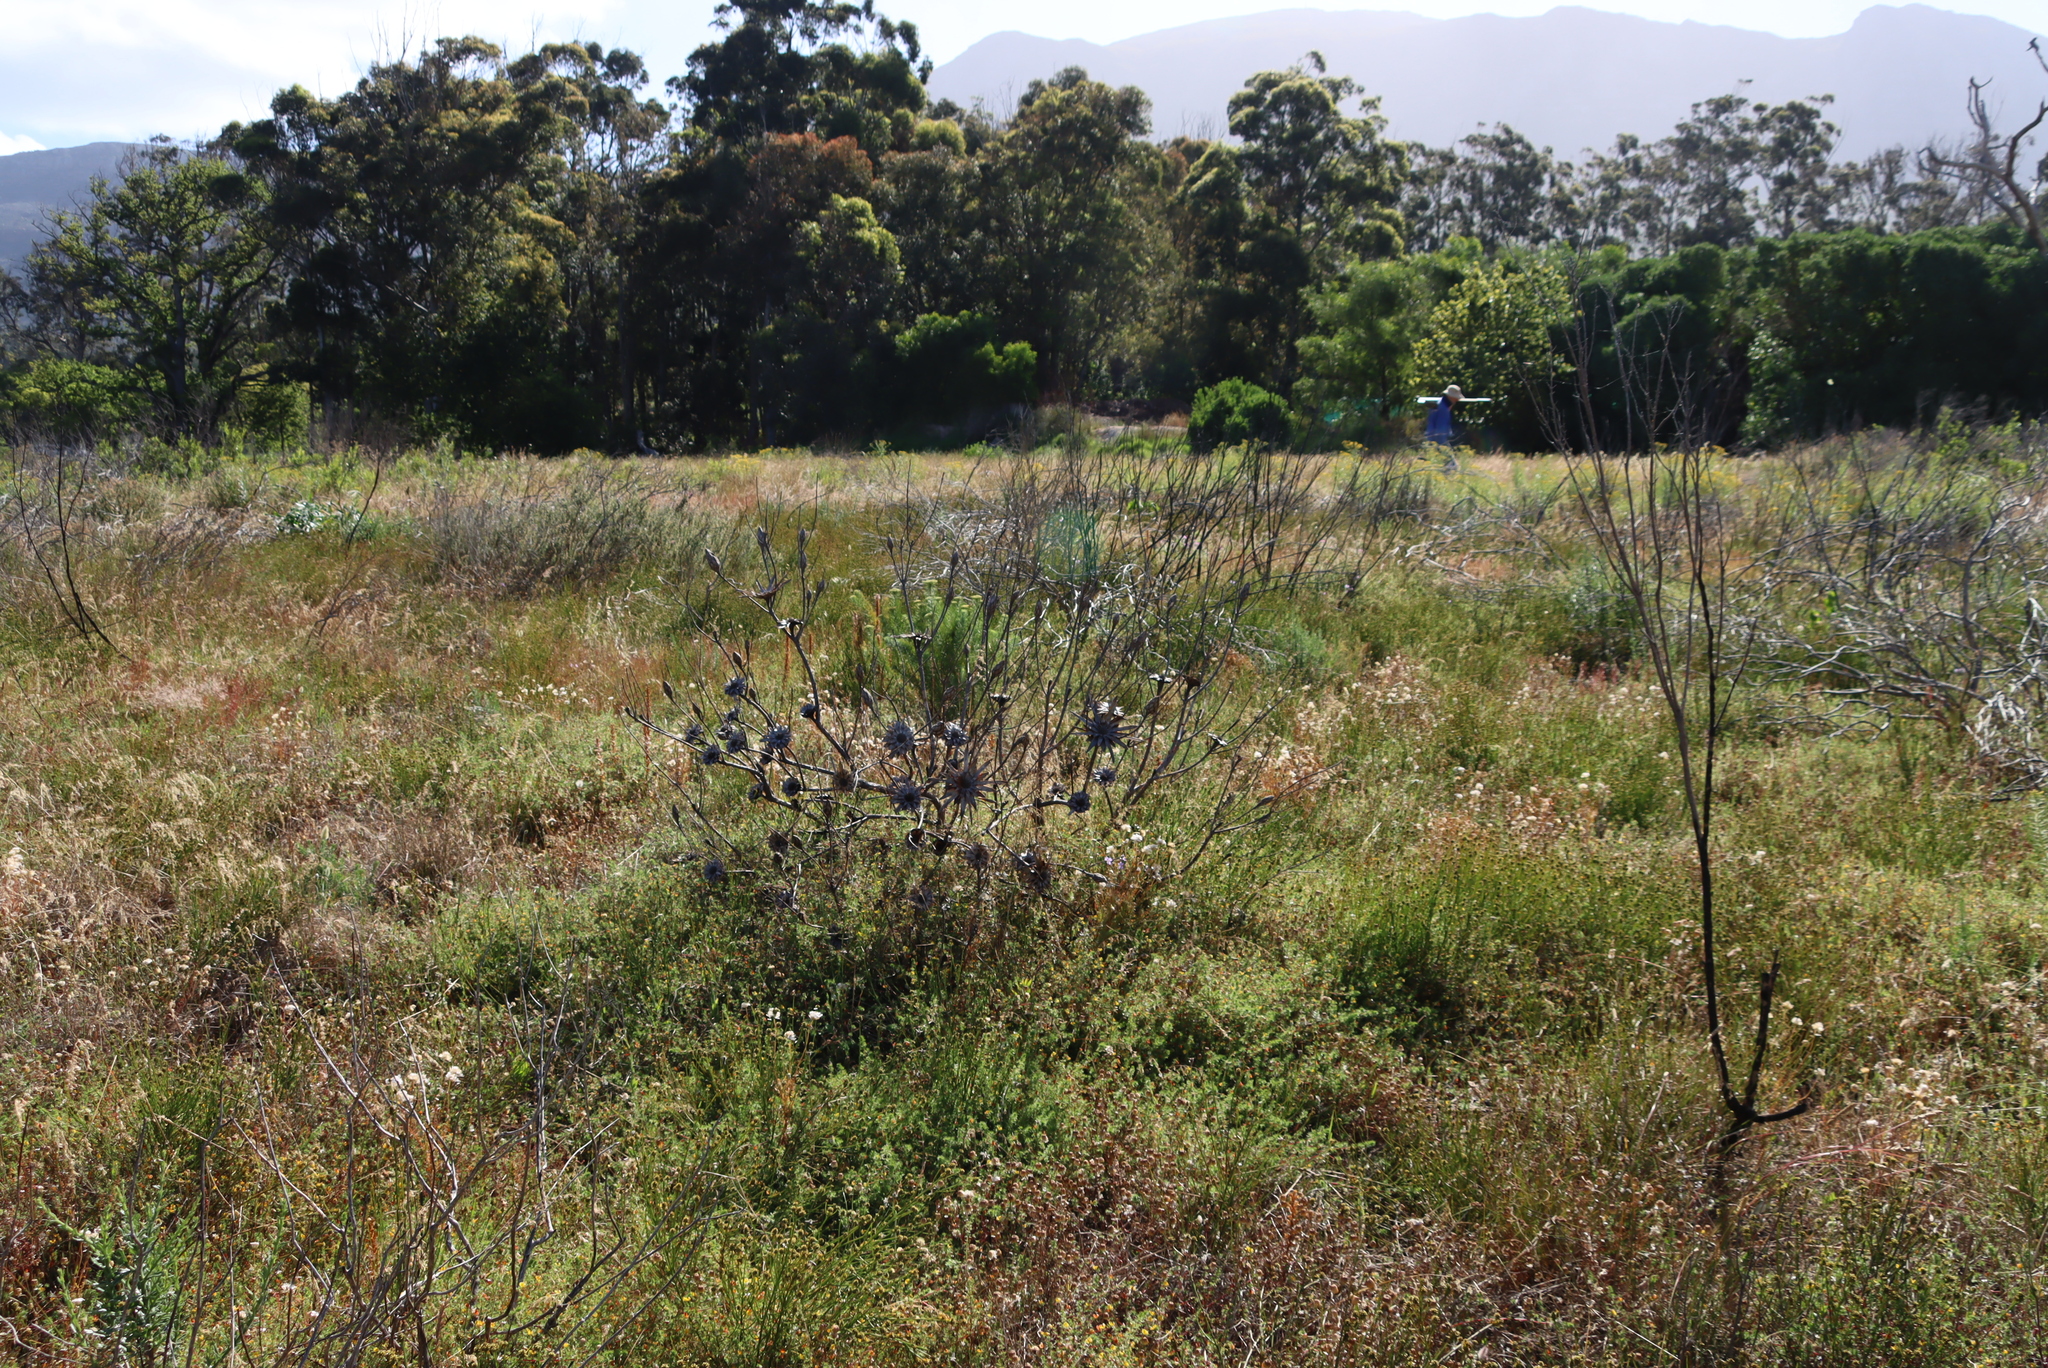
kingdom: Plantae
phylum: Tracheophyta
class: Magnoliopsida
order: Proteales
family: Proteaceae
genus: Protea
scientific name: Protea repens
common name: Sugarbush
